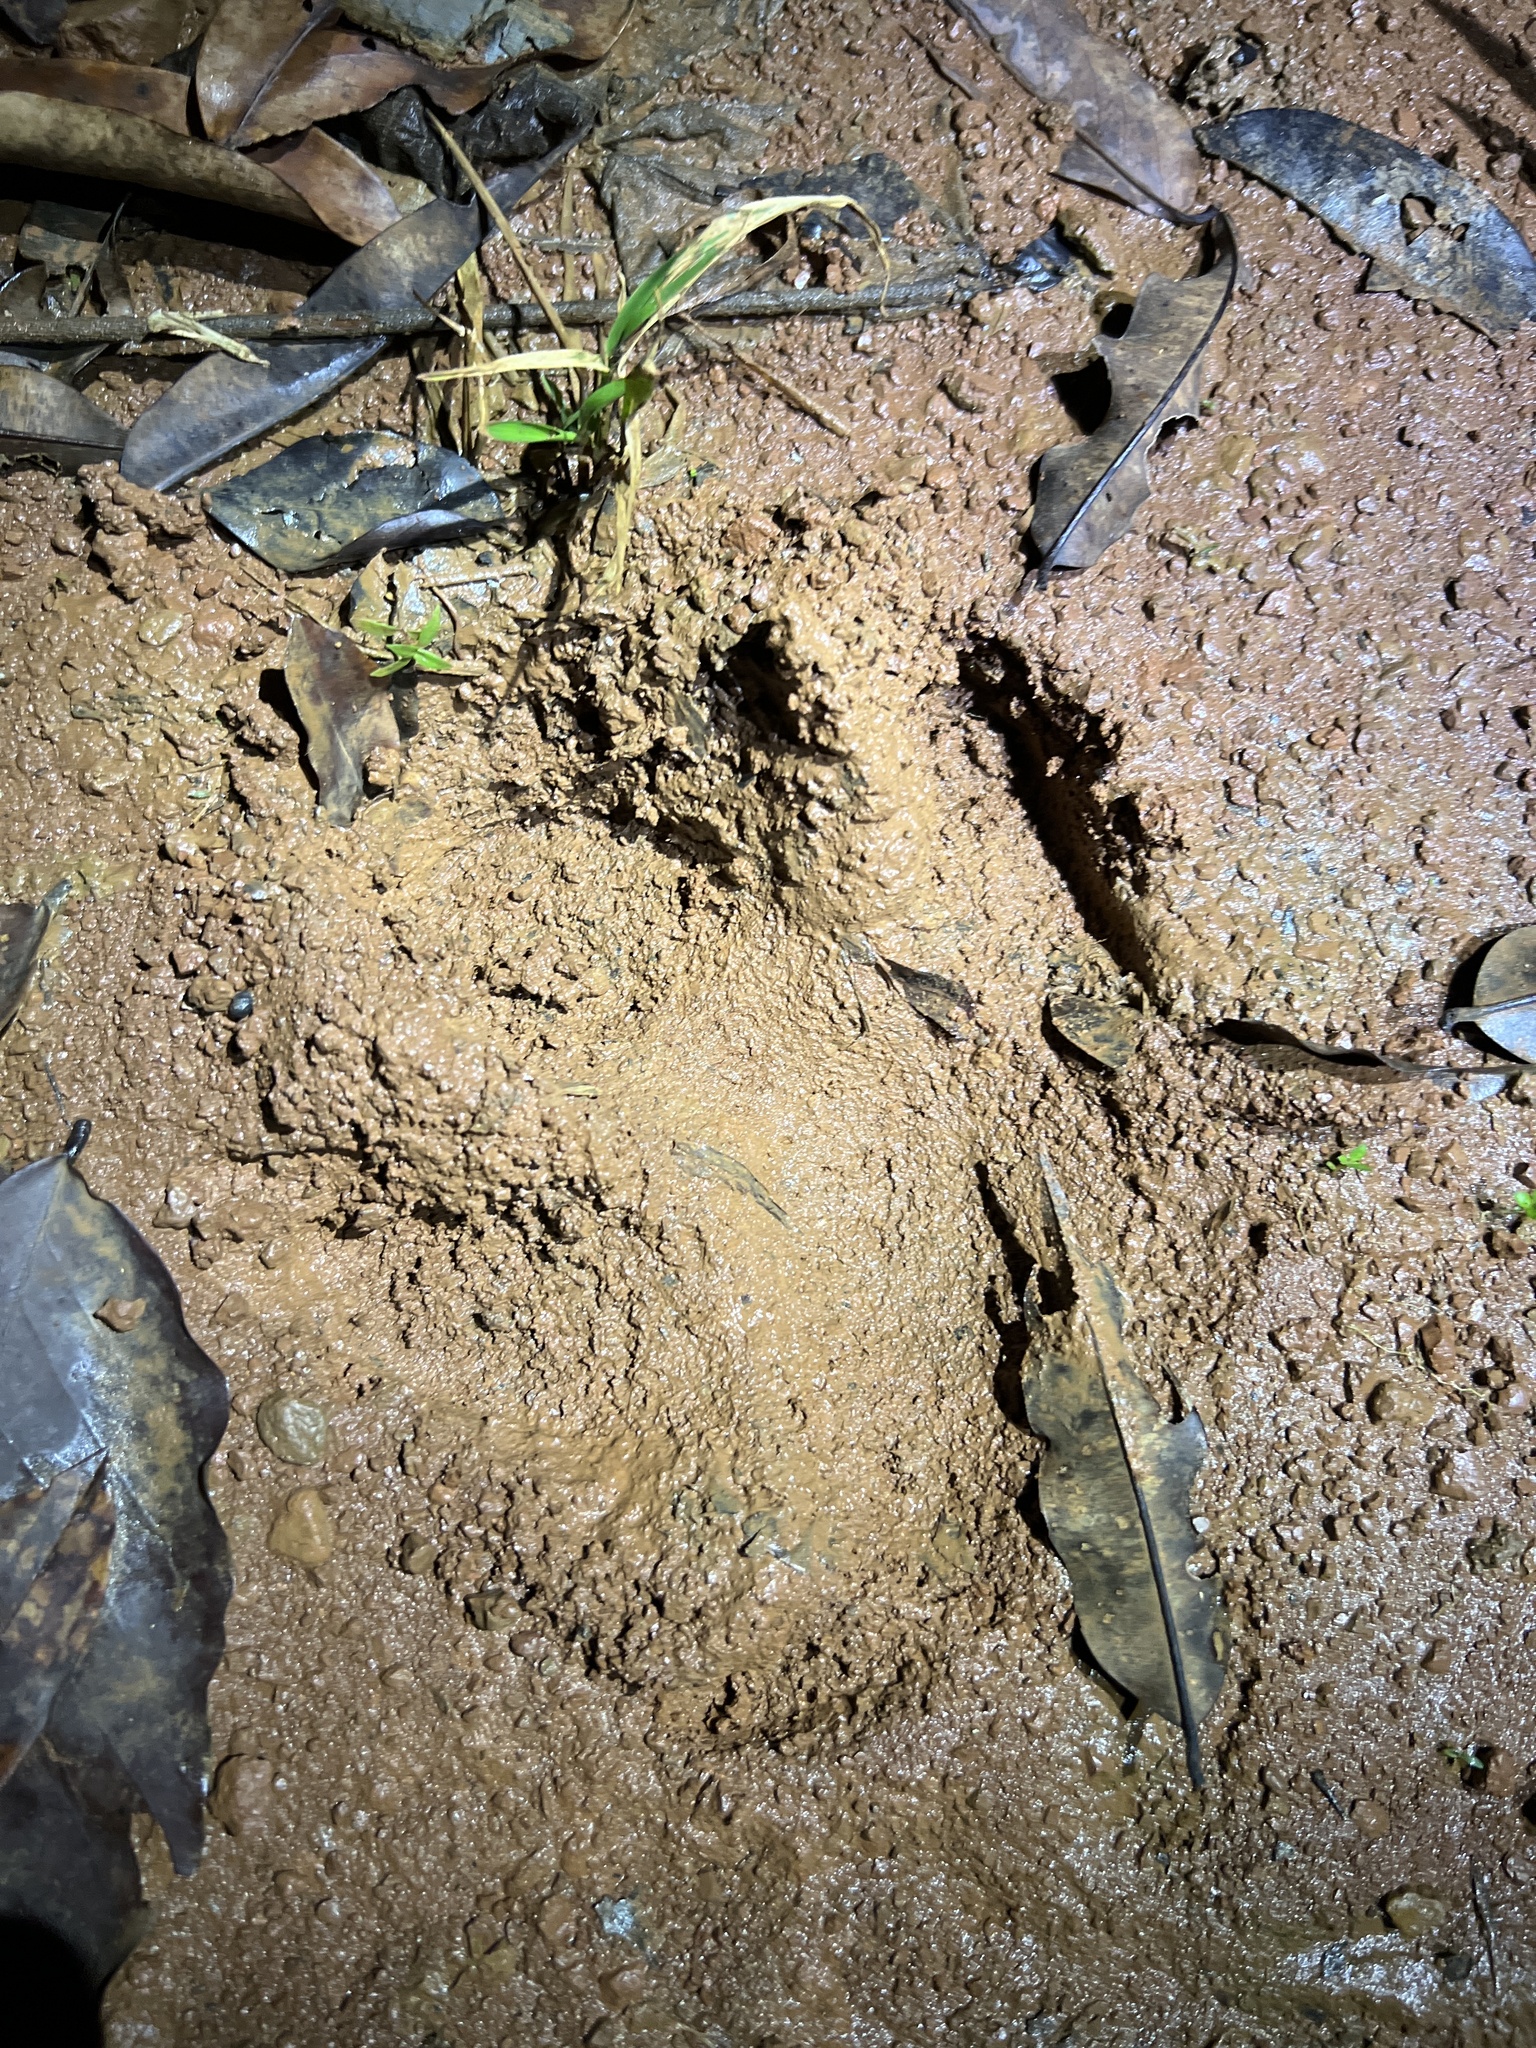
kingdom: Animalia
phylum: Chordata
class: Mammalia
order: Perissodactyla
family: Tapiridae
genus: Tapirella
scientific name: Tapirella bairdii
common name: Baird's tapir
